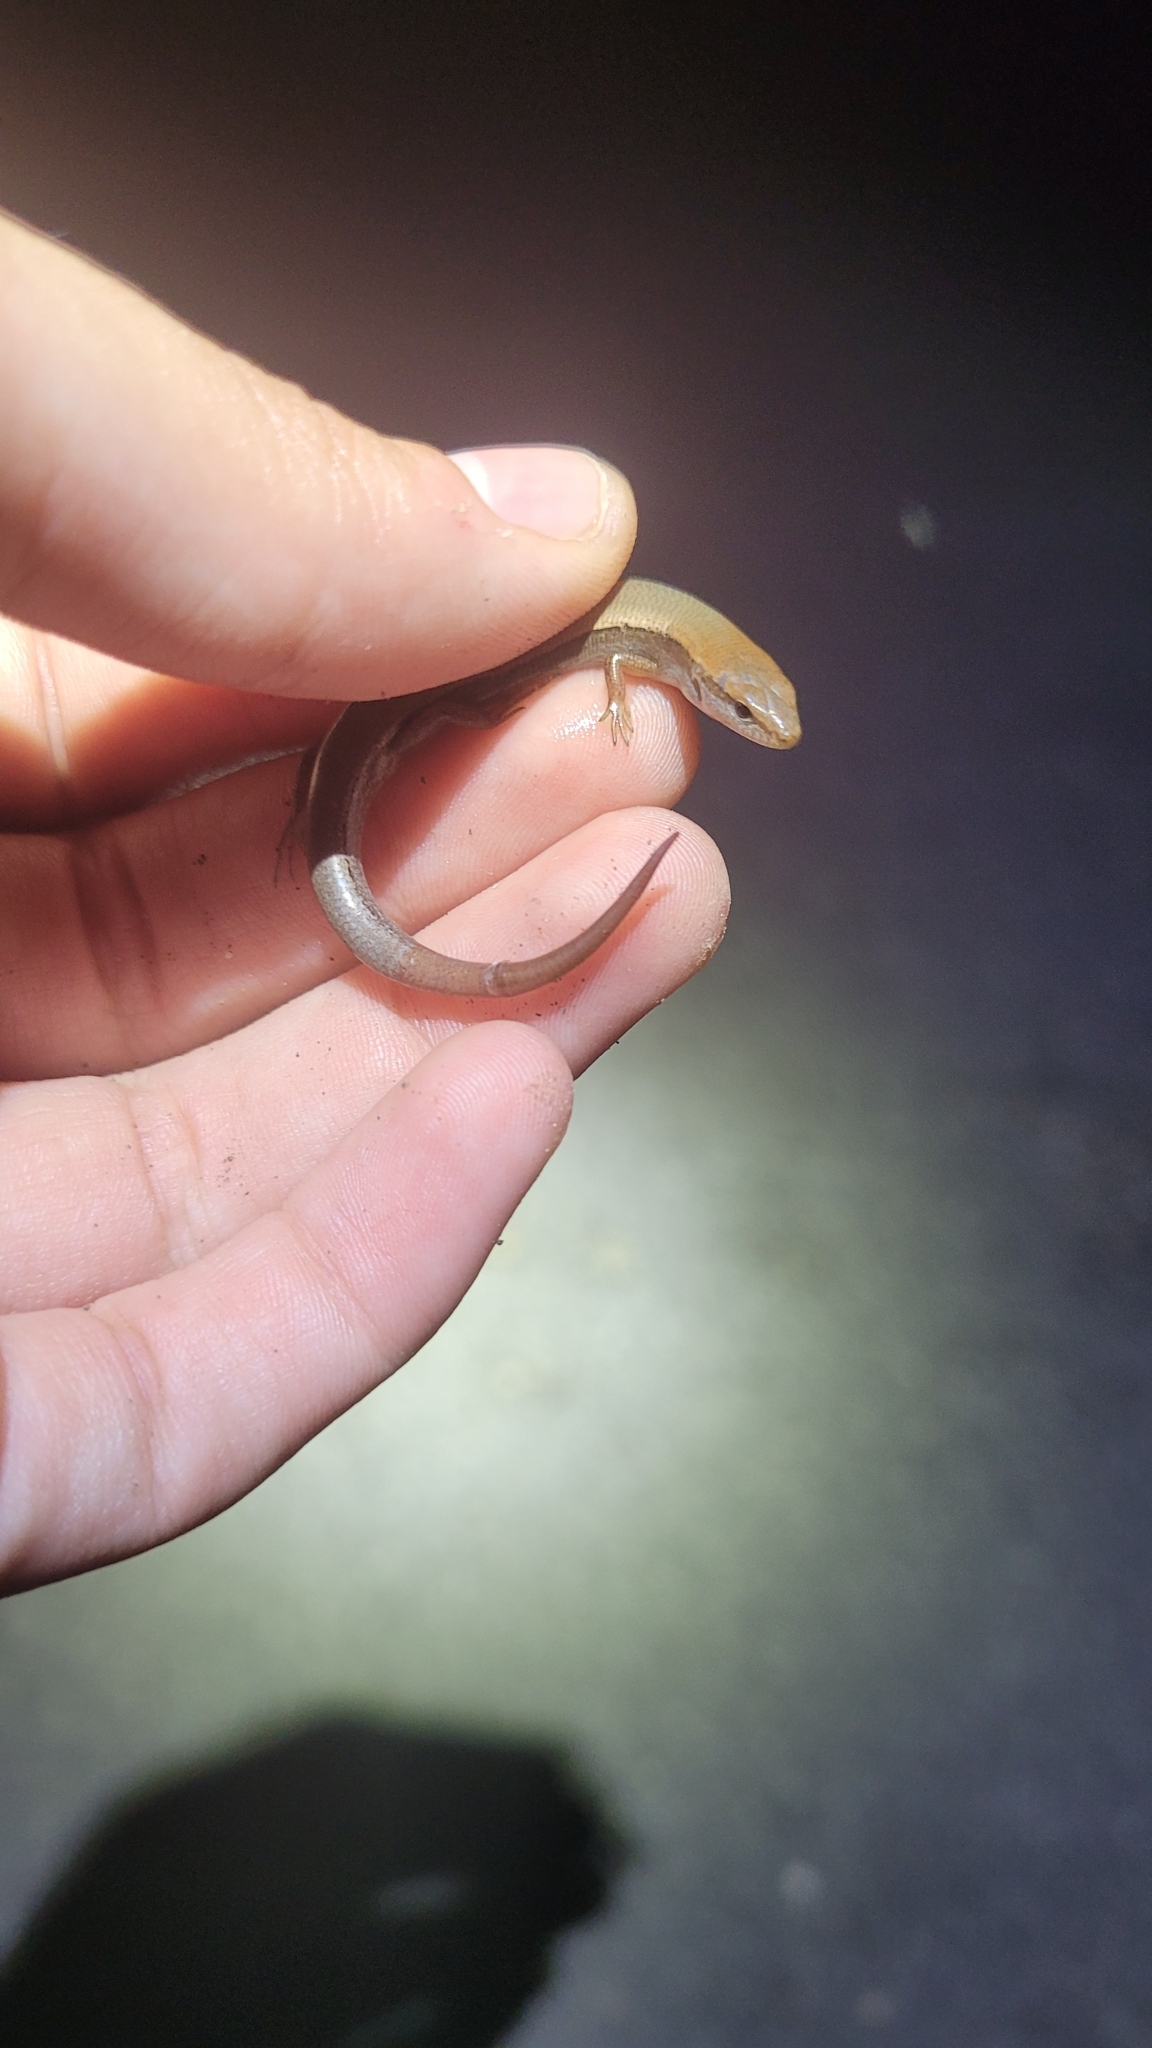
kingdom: Animalia
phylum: Chordata
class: Squamata
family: Scincidae
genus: Scincella
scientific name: Scincella lateralis
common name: Ground skink
